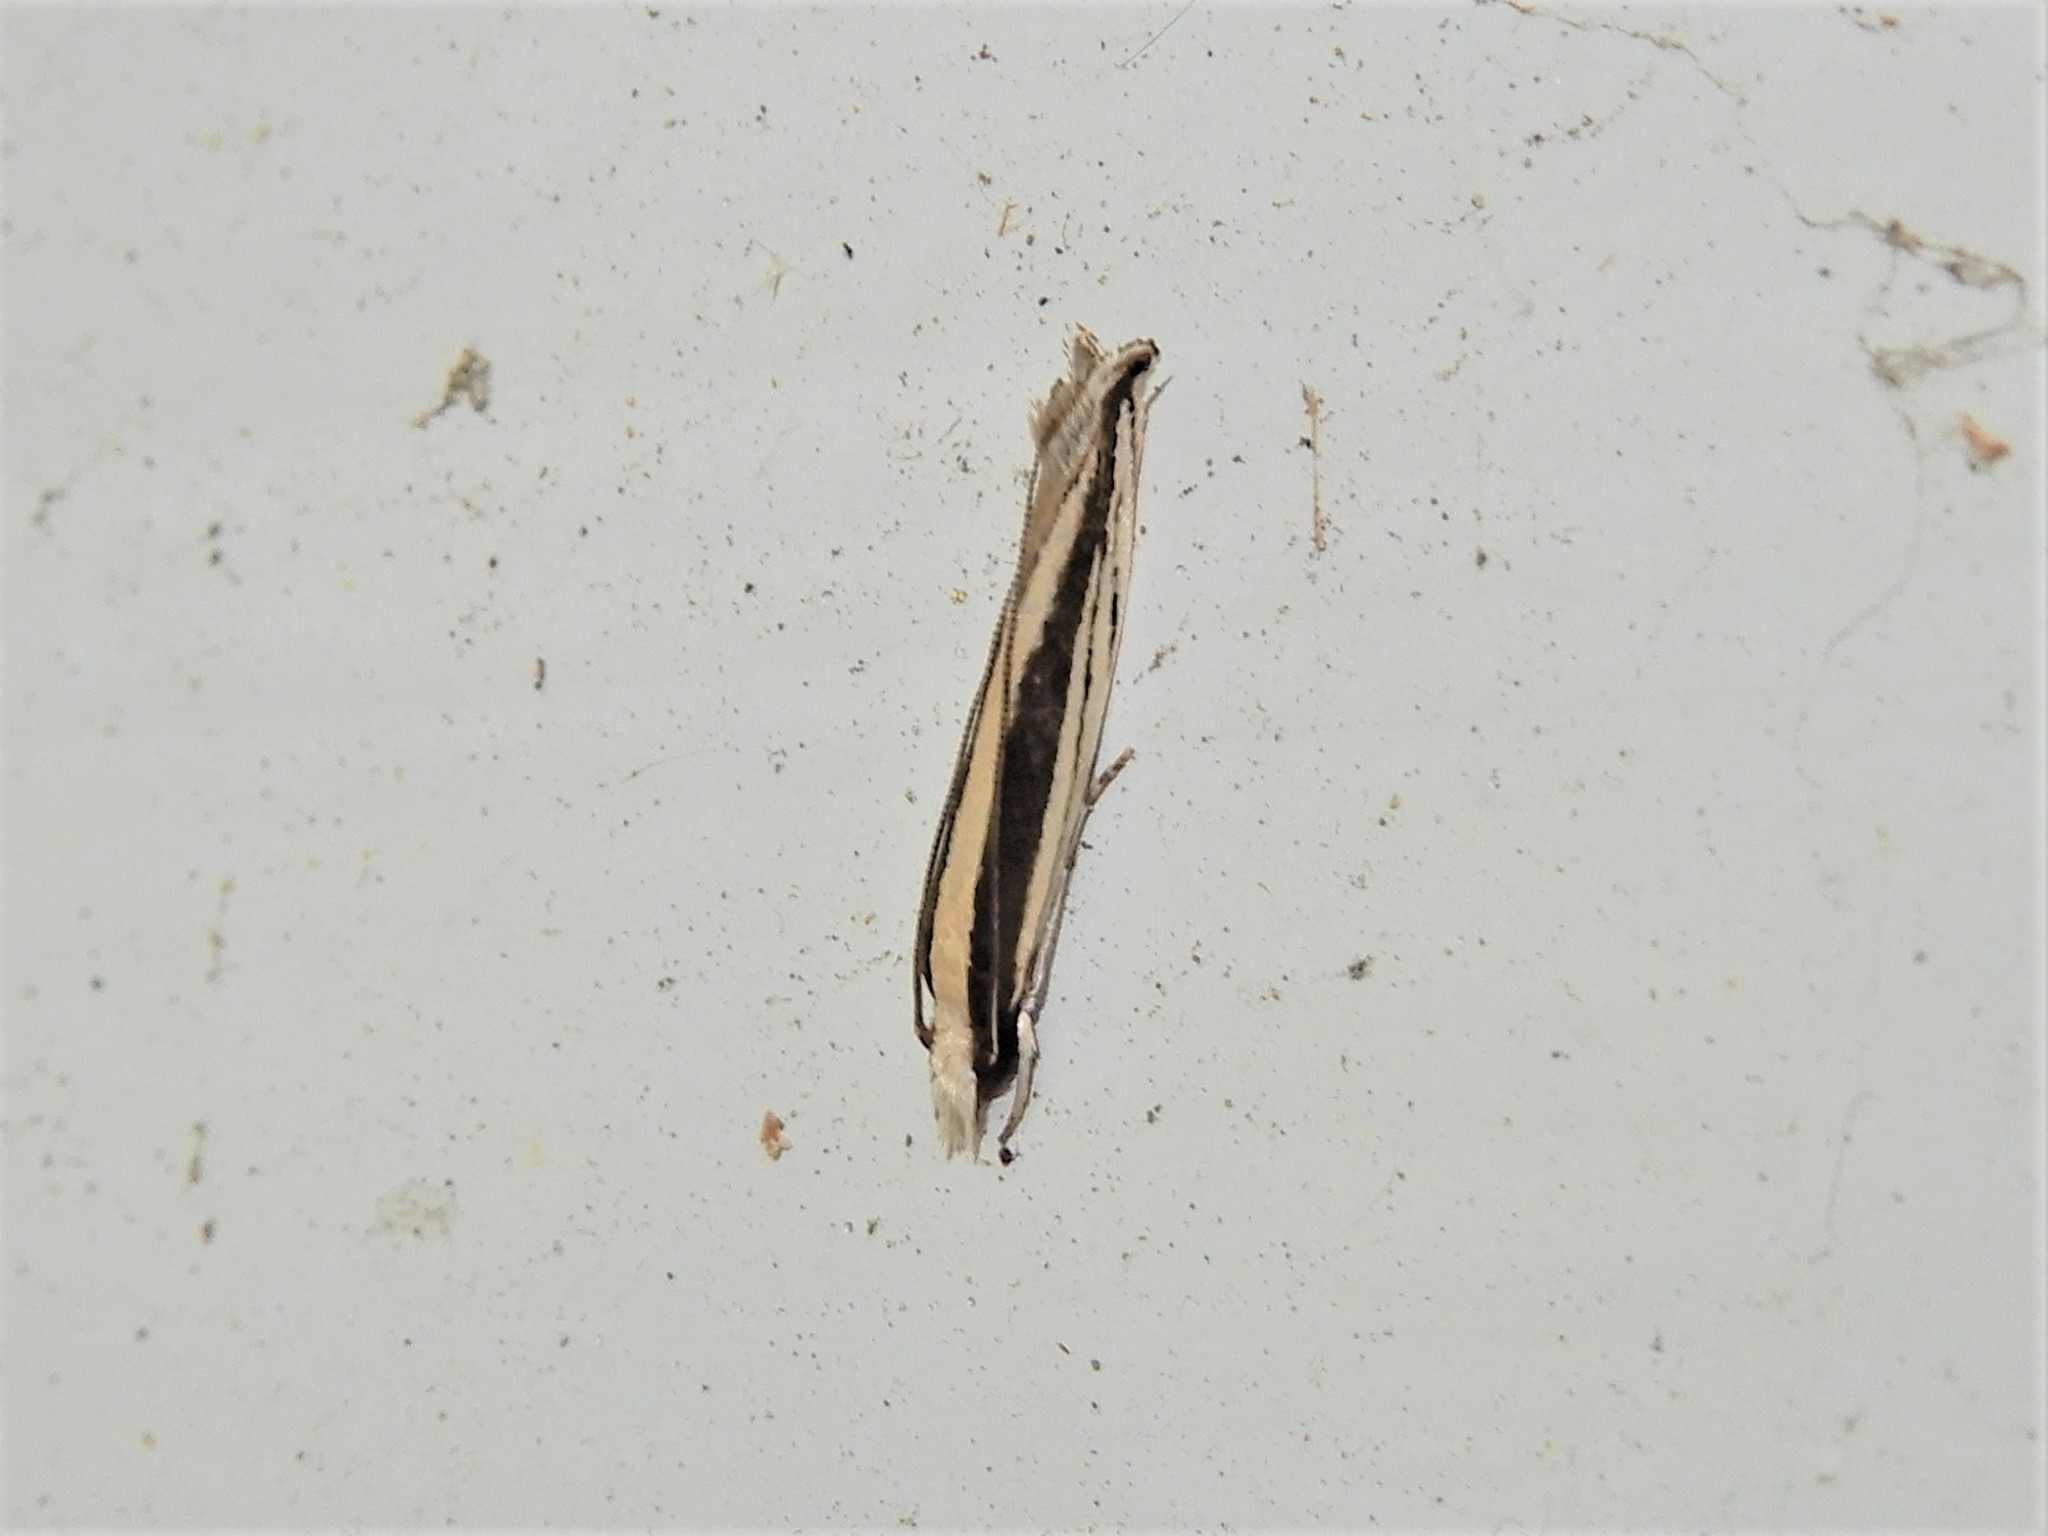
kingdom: Animalia
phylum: Arthropoda
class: Insecta
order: Lepidoptera
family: Tineidae
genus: Erechthias
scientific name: Erechthias stilbella
